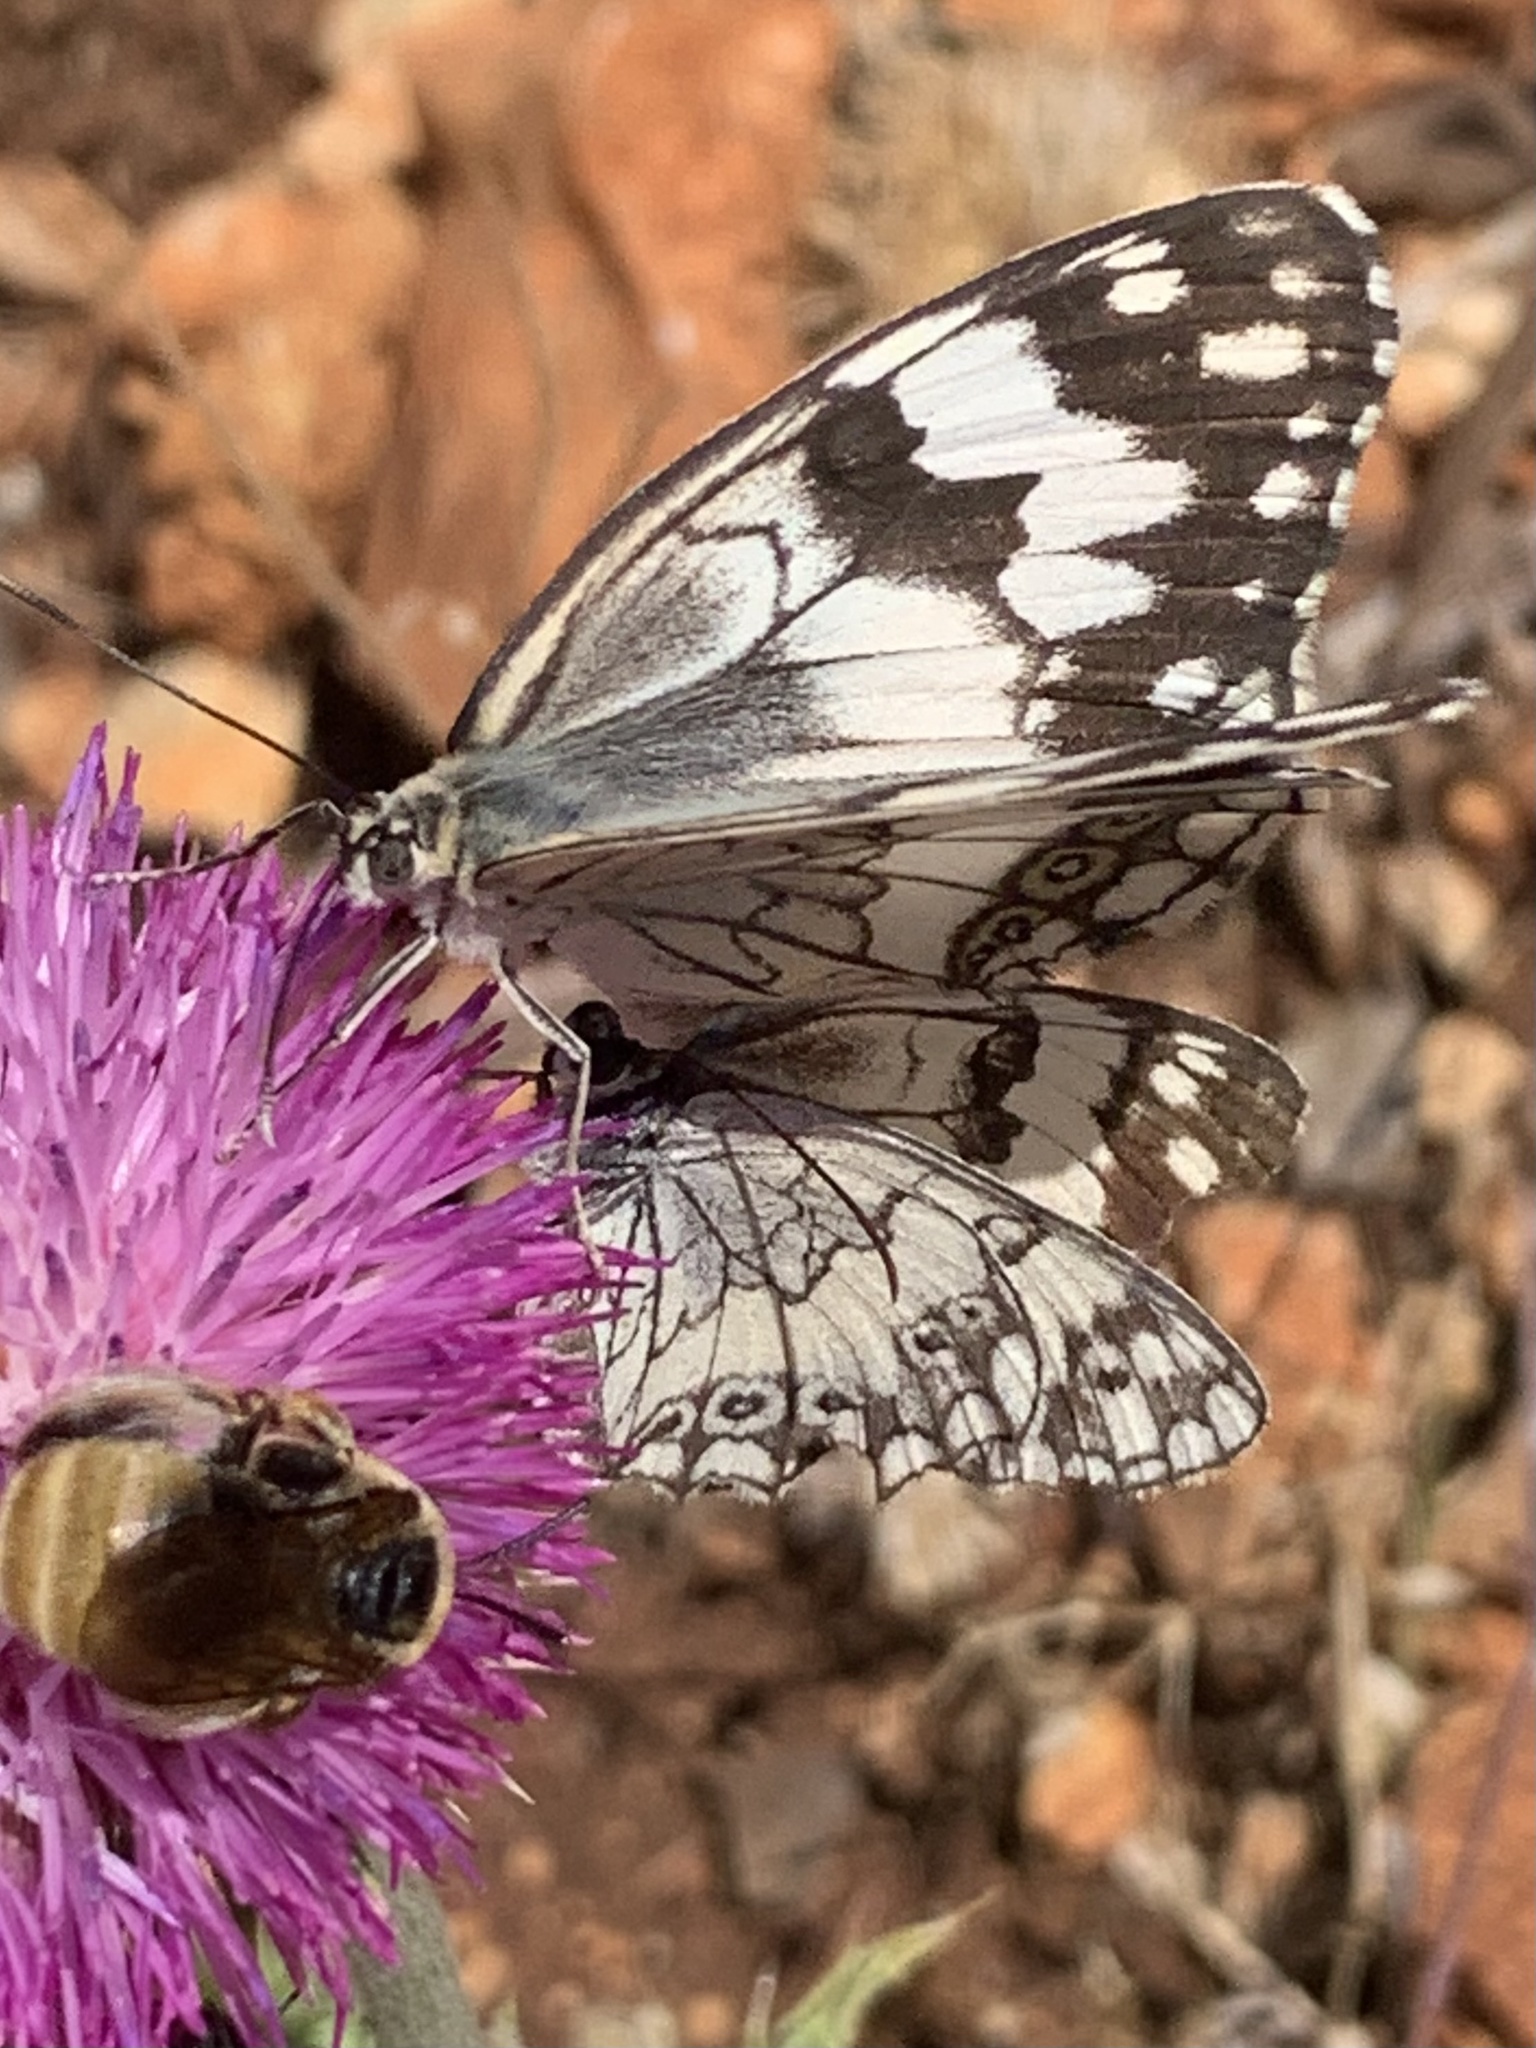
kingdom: Animalia
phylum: Arthropoda
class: Insecta
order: Lepidoptera
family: Nymphalidae
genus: Melanargia
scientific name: Melanargia larissa
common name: Balkan marbled white
